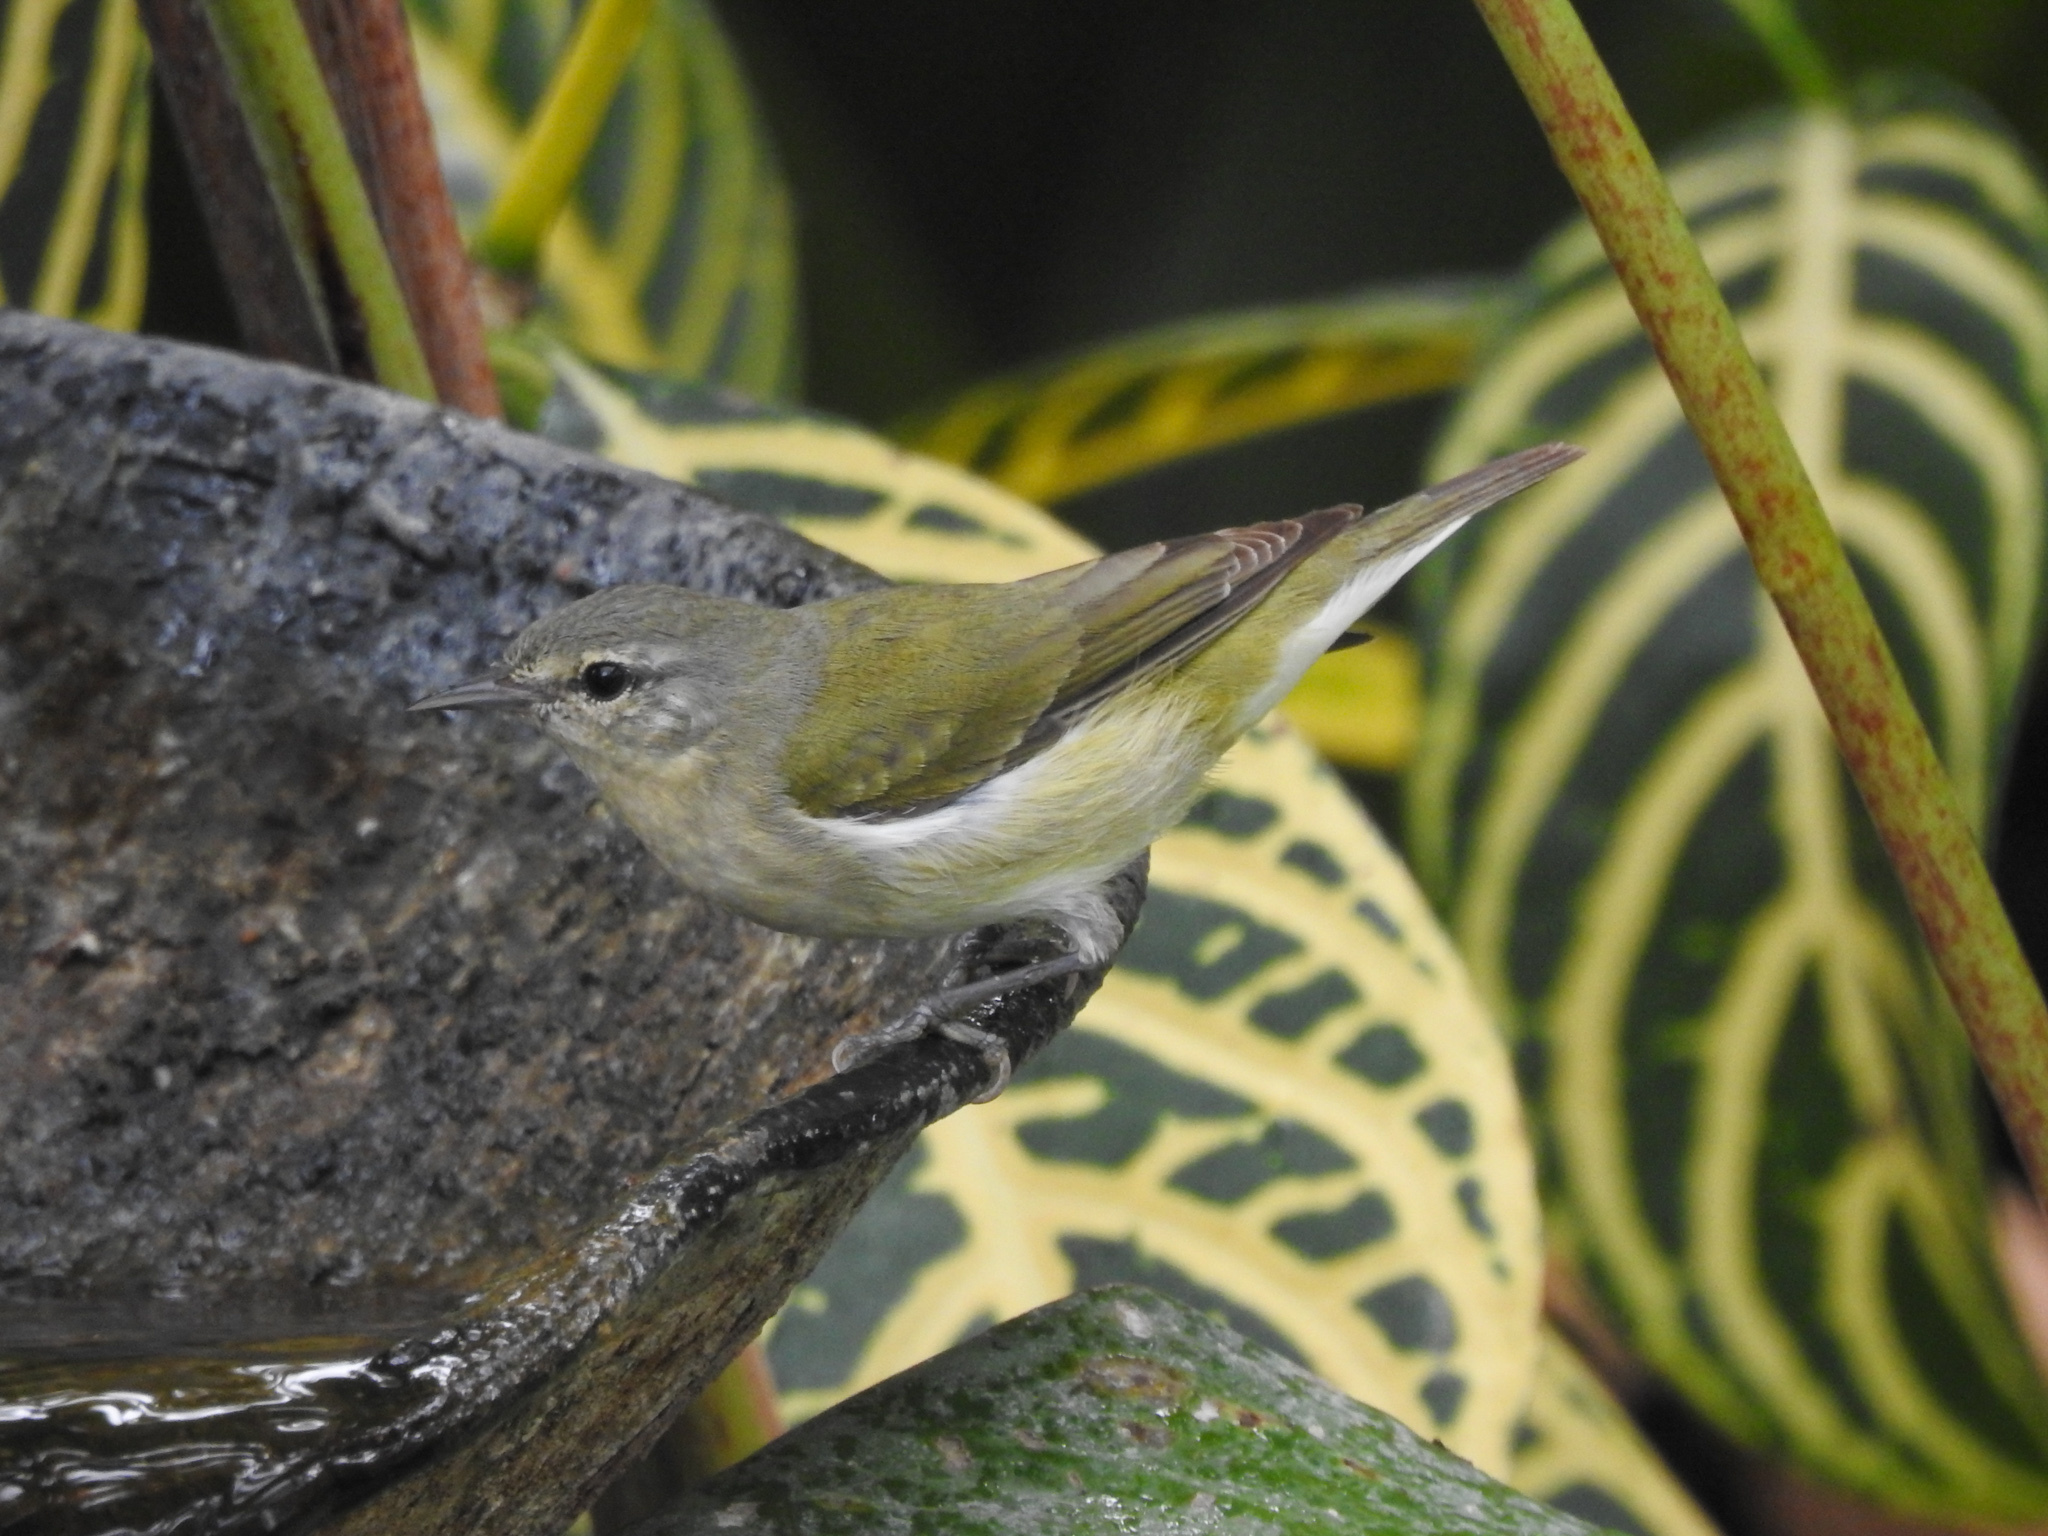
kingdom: Animalia
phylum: Chordata
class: Aves
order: Passeriformes
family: Parulidae
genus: Leiothlypis
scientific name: Leiothlypis peregrina
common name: Tennessee warbler
